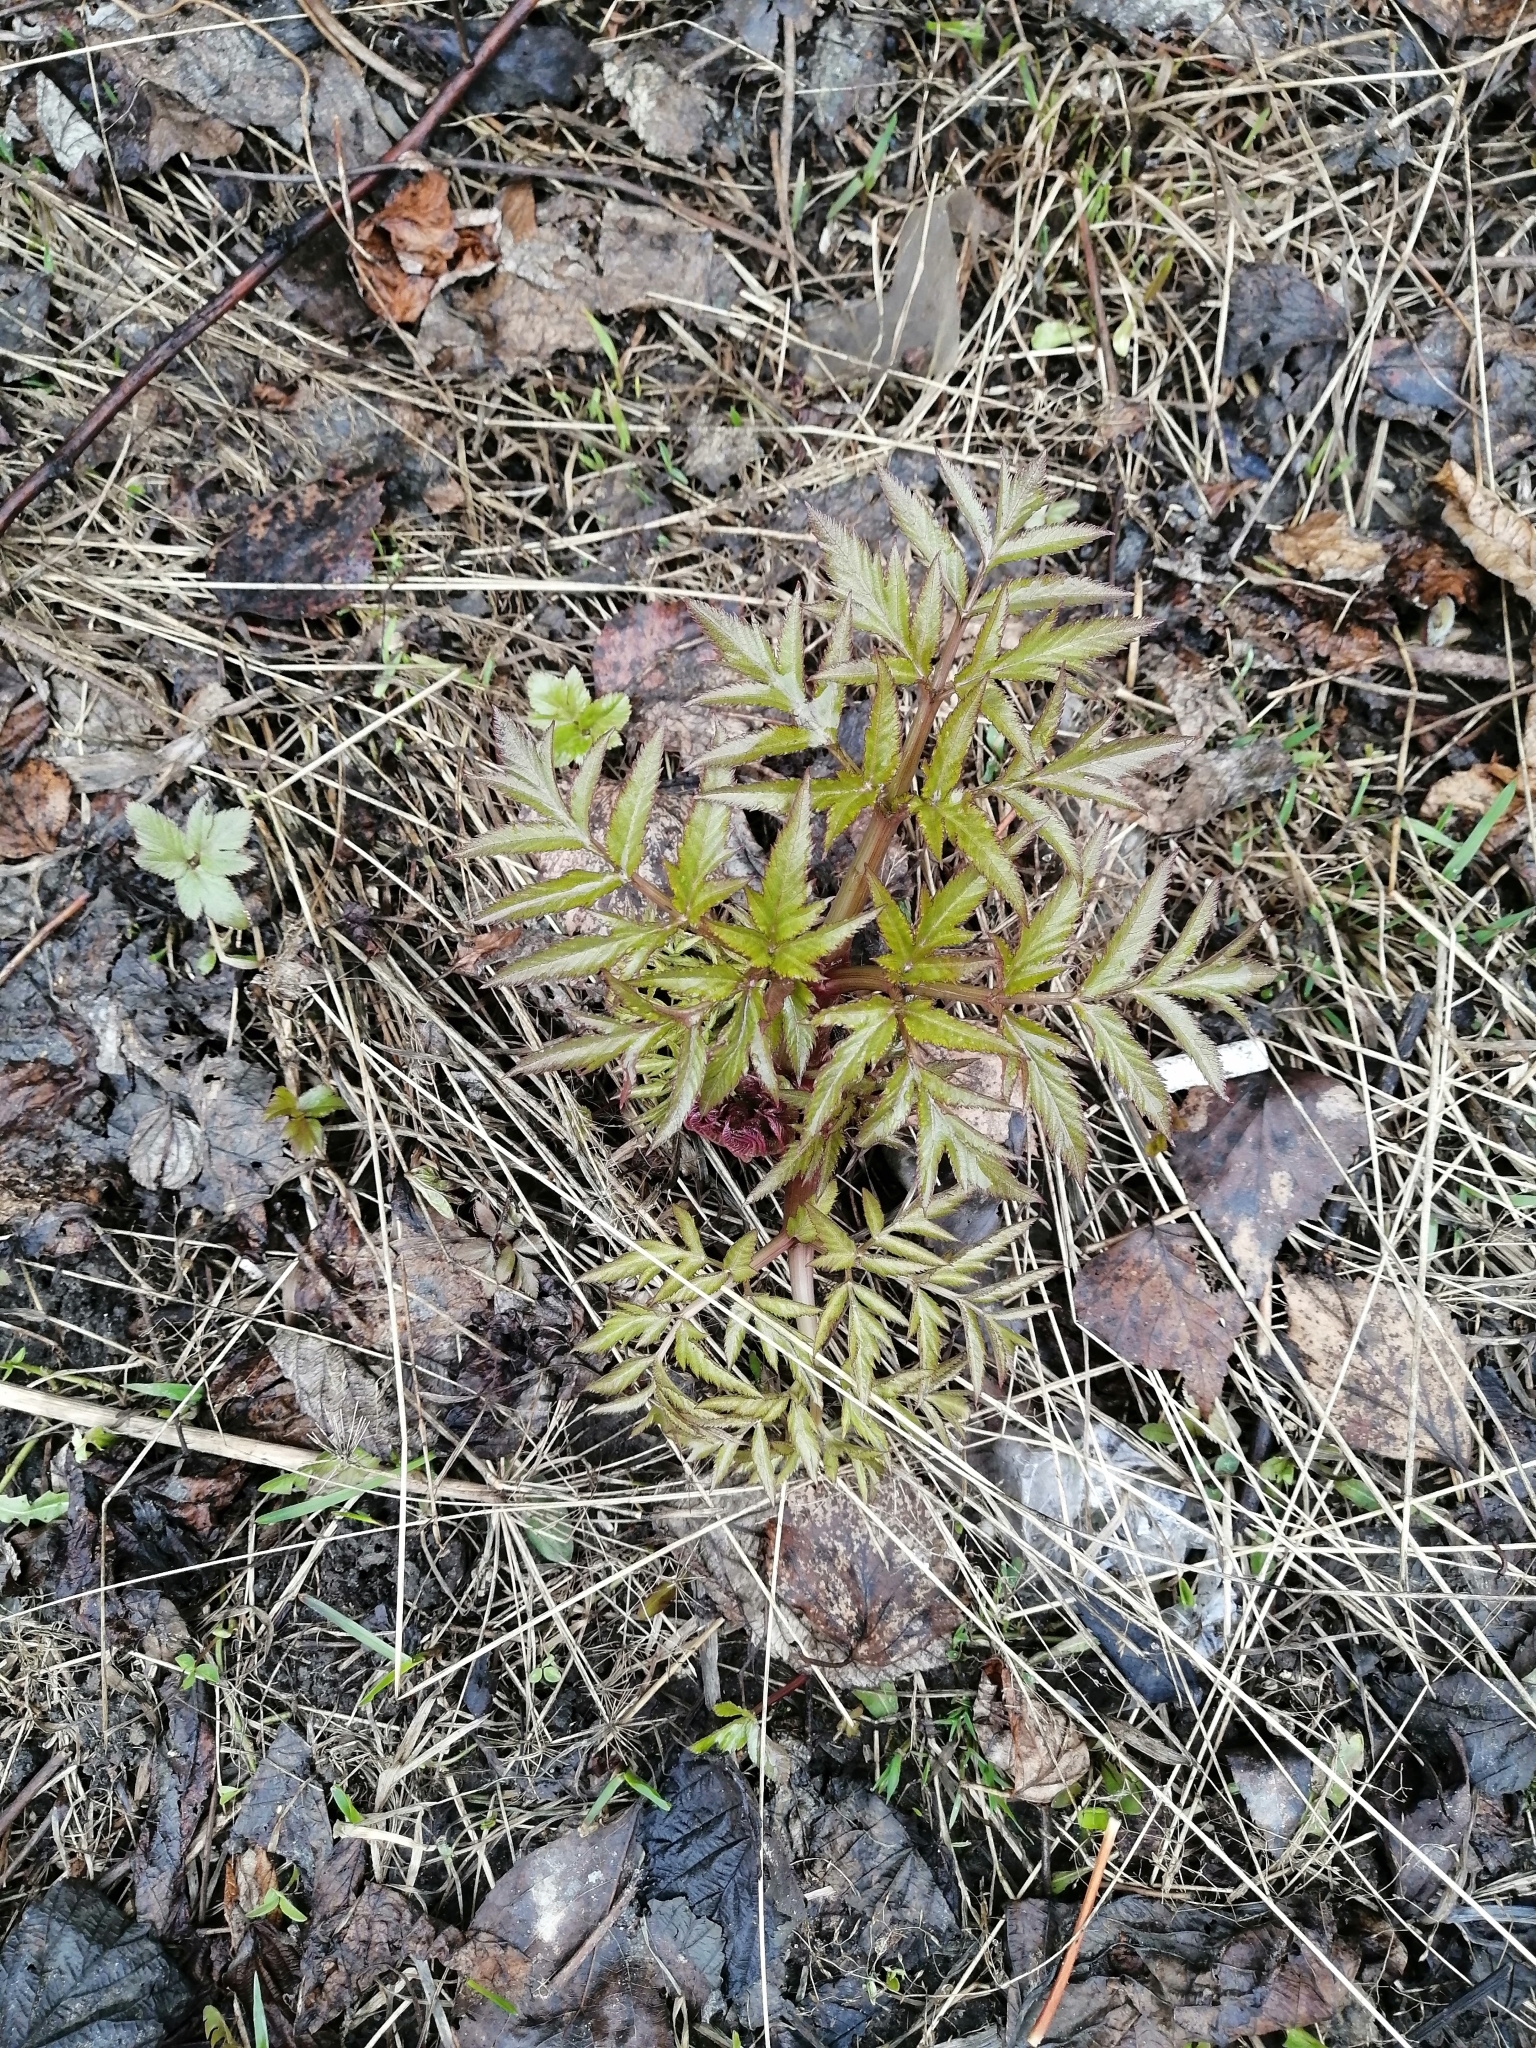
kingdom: Plantae
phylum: Tracheophyta
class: Magnoliopsida
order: Apiales
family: Apiaceae
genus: Angelica
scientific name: Angelica sylvestris
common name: Wild angelica
